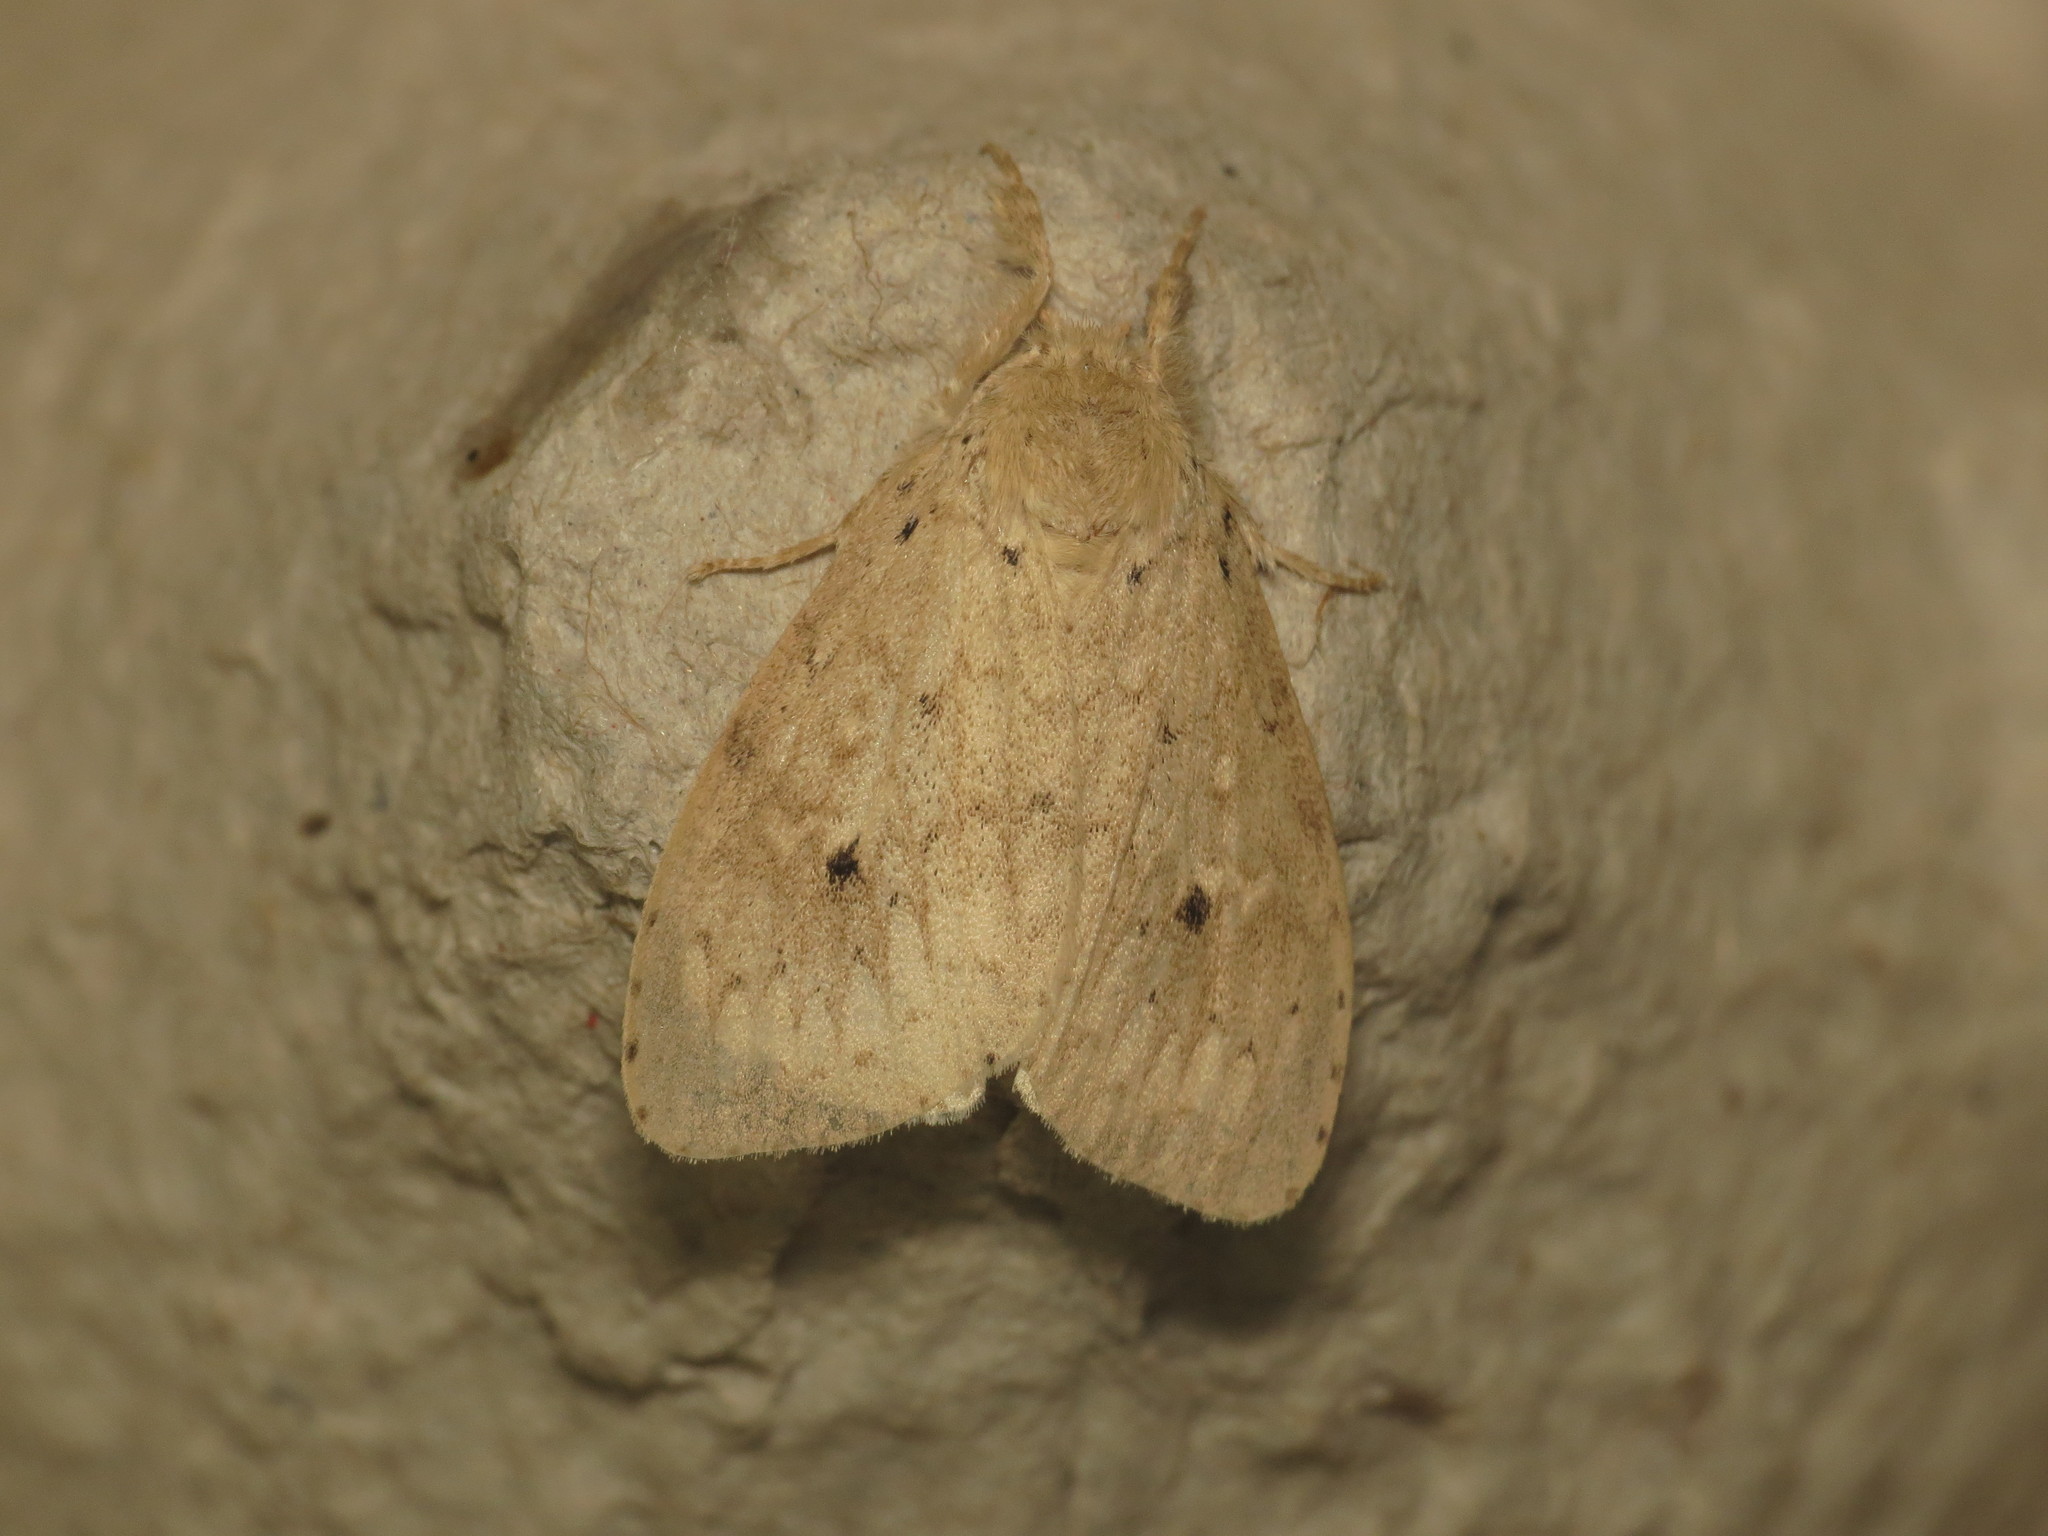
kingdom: Animalia
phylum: Arthropoda
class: Insecta
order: Lepidoptera
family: Erebidae
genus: Dura
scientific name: Dura ochrias
